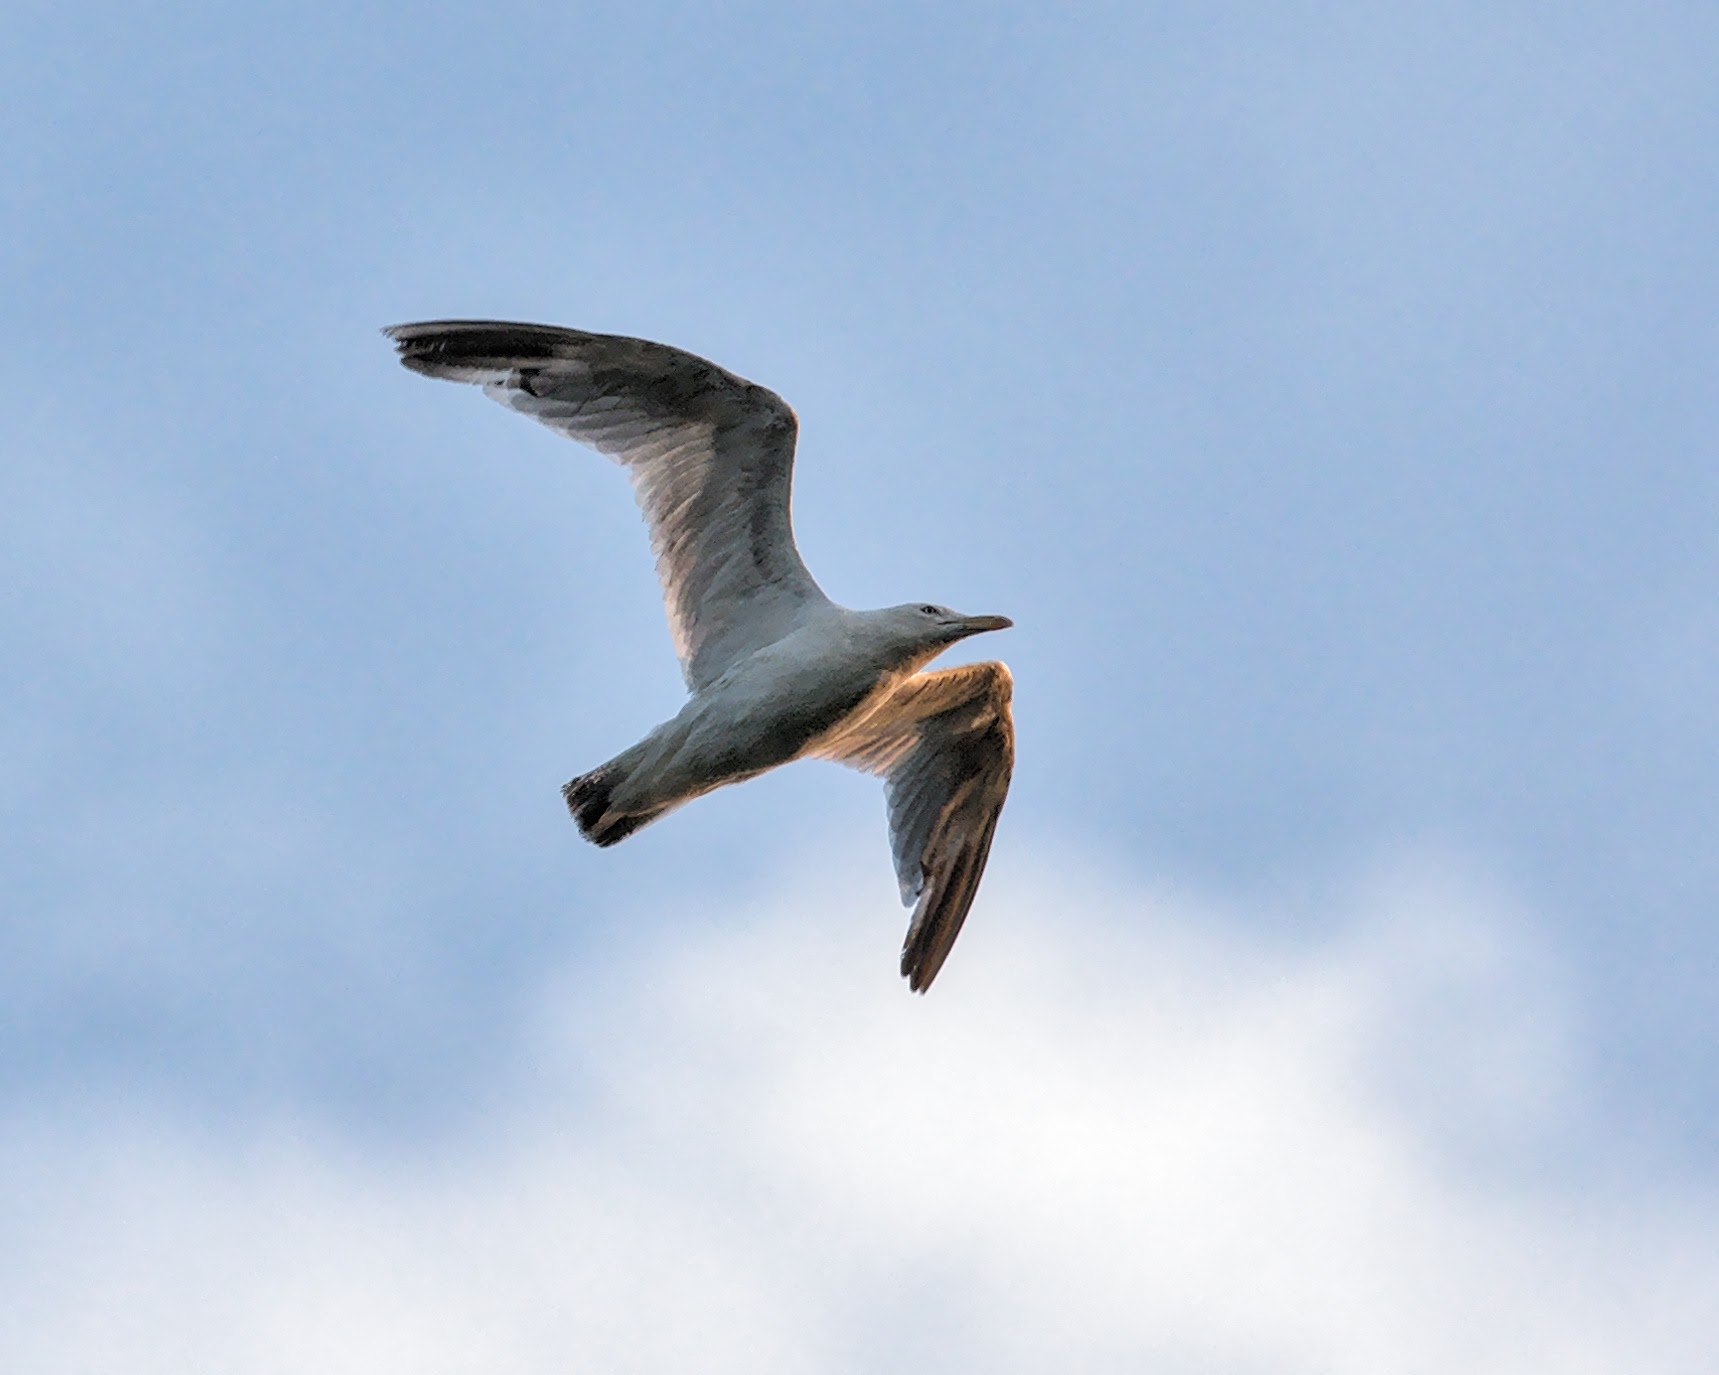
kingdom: Animalia
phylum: Chordata
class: Aves
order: Charadriiformes
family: Laridae
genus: Larus
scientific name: Larus argentatus
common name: Herring gull
